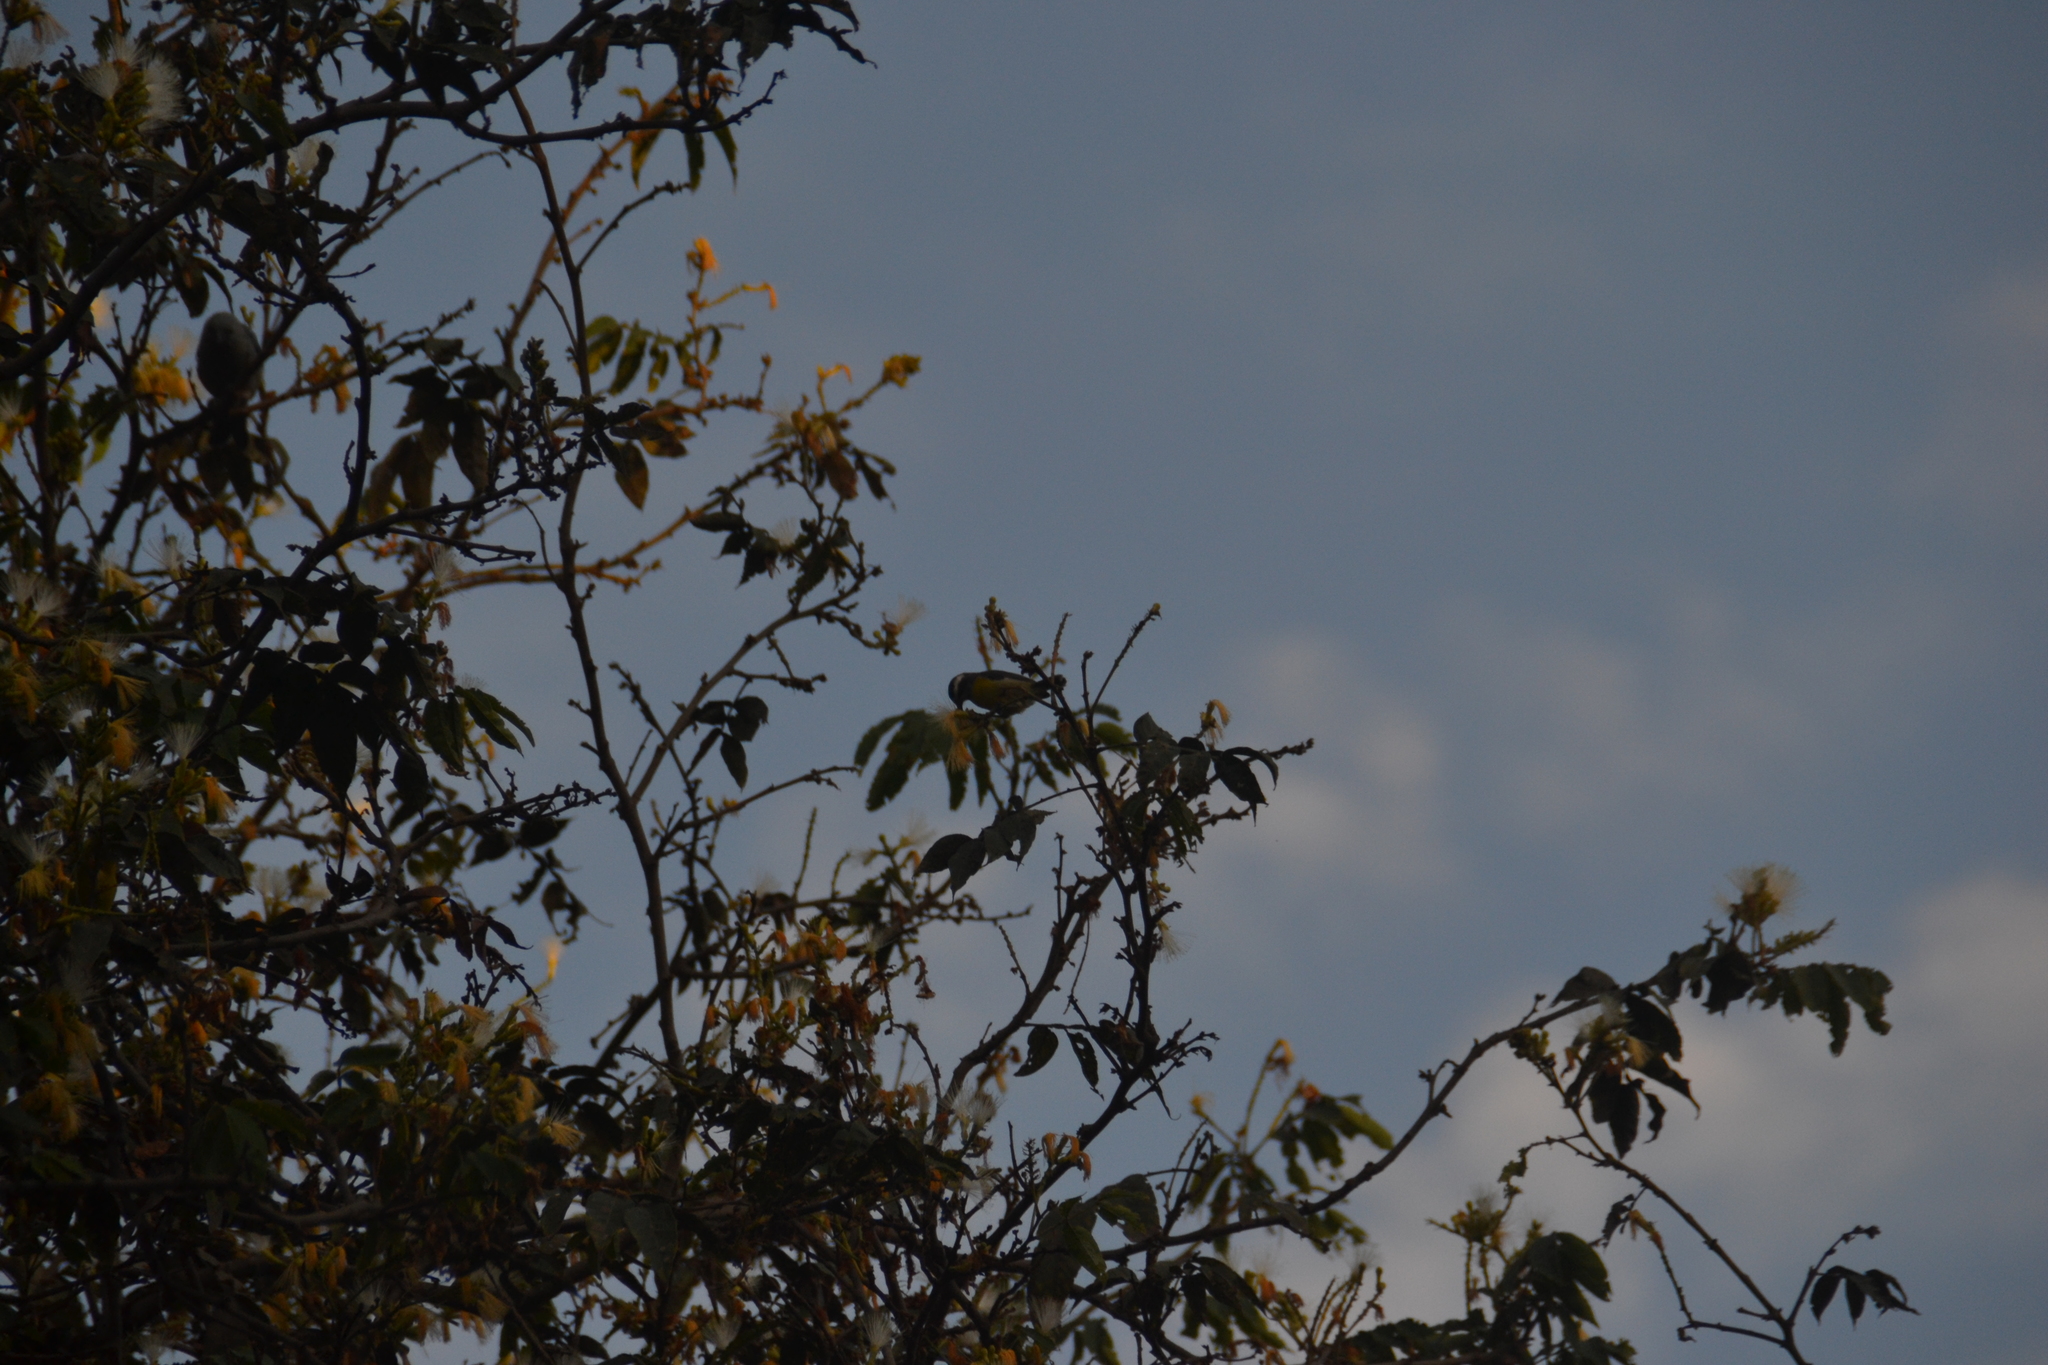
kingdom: Animalia
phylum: Chordata
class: Aves
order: Passeriformes
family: Thraupidae
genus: Coereba
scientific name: Coereba flaveola
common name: Bananaquit
